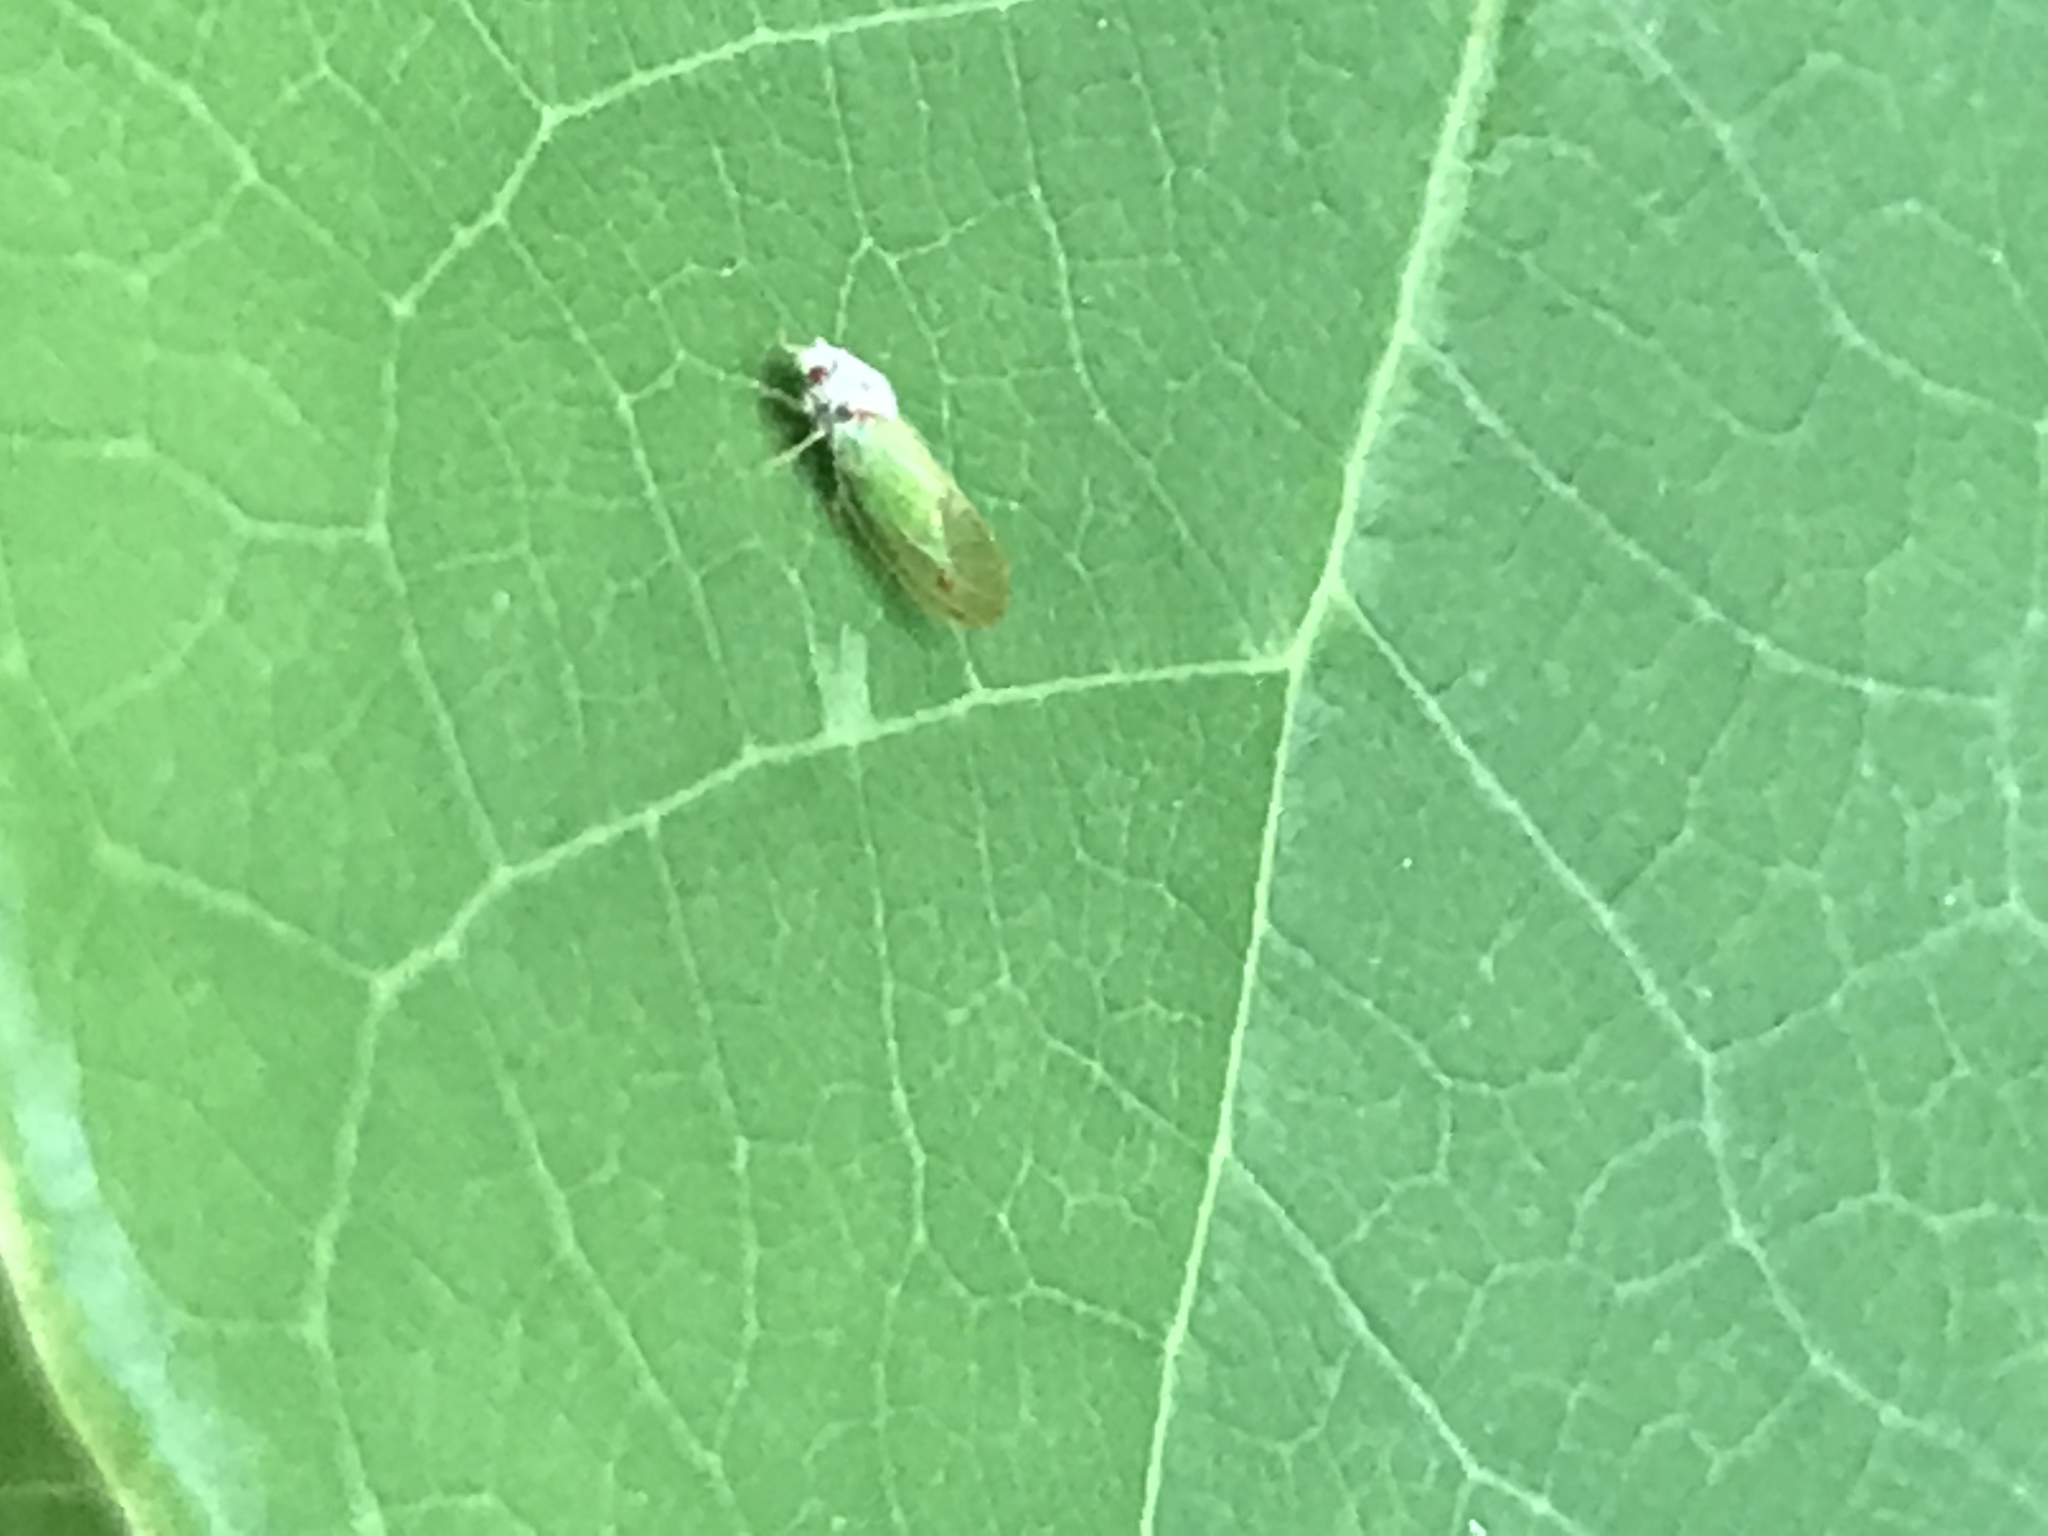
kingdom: Animalia
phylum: Arthropoda
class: Insecta
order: Hemiptera
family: Psyllidae
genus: Psylla
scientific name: Psylla buxi
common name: Boxwood psyllid
